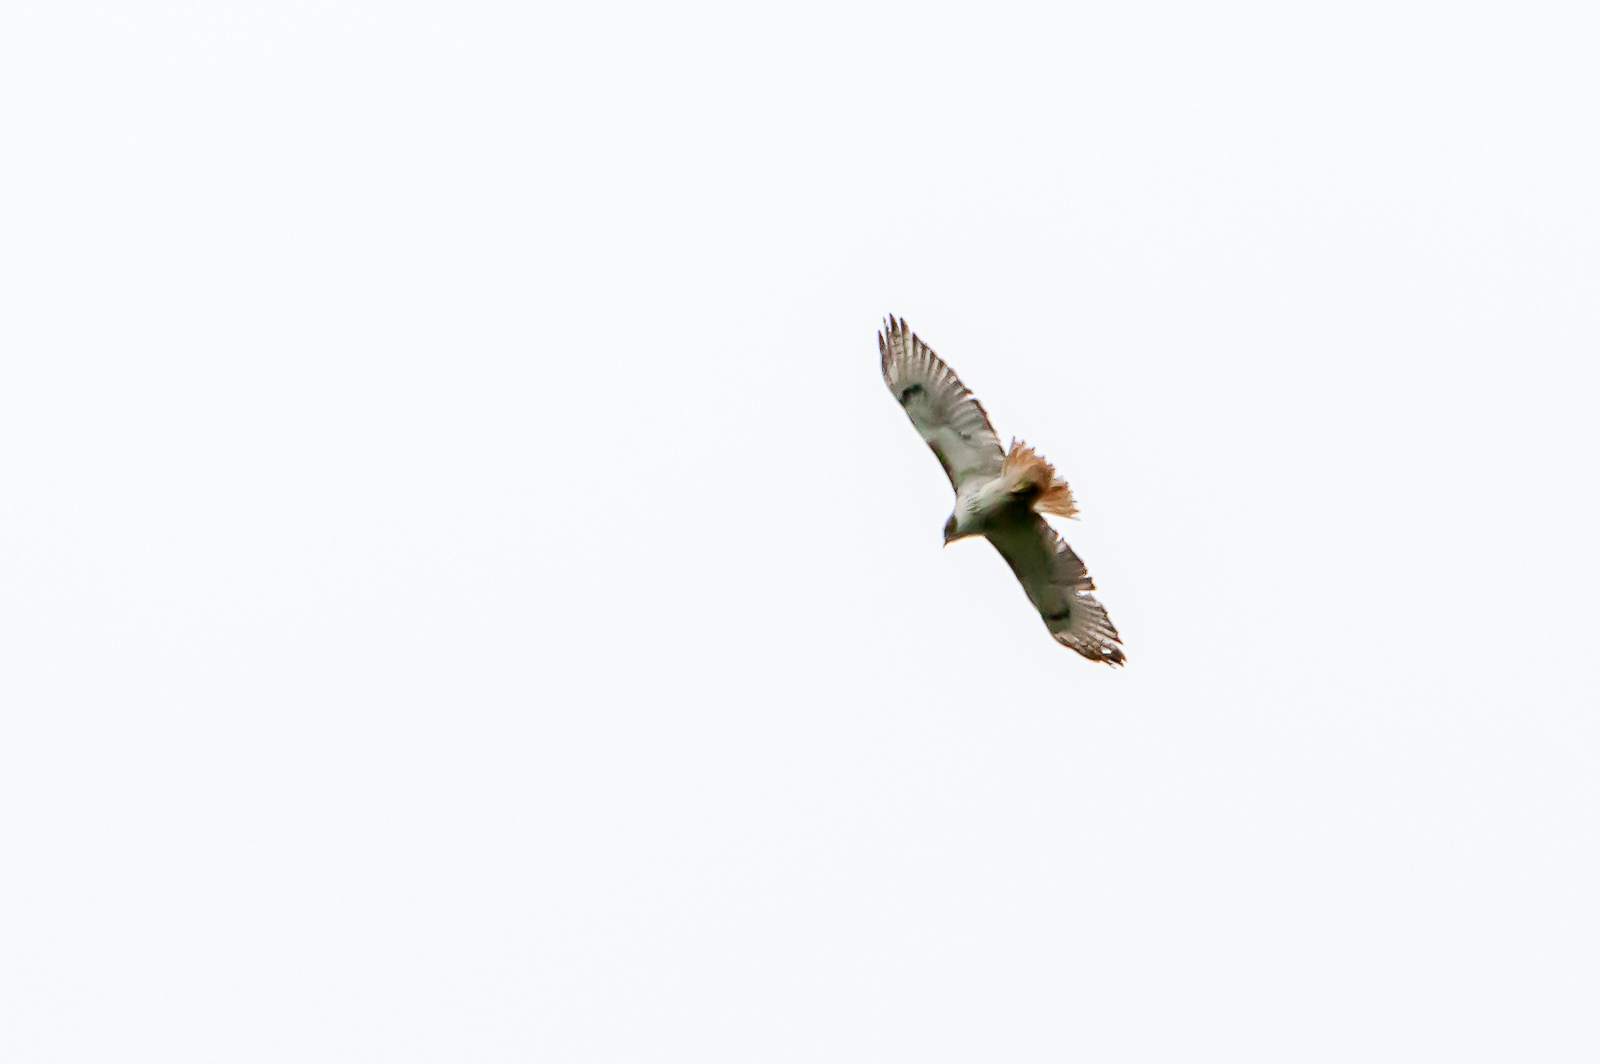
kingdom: Animalia
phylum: Chordata
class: Aves
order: Accipitriformes
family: Accipitridae
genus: Buteo
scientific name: Buteo jamaicensis
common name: Red-tailed hawk
